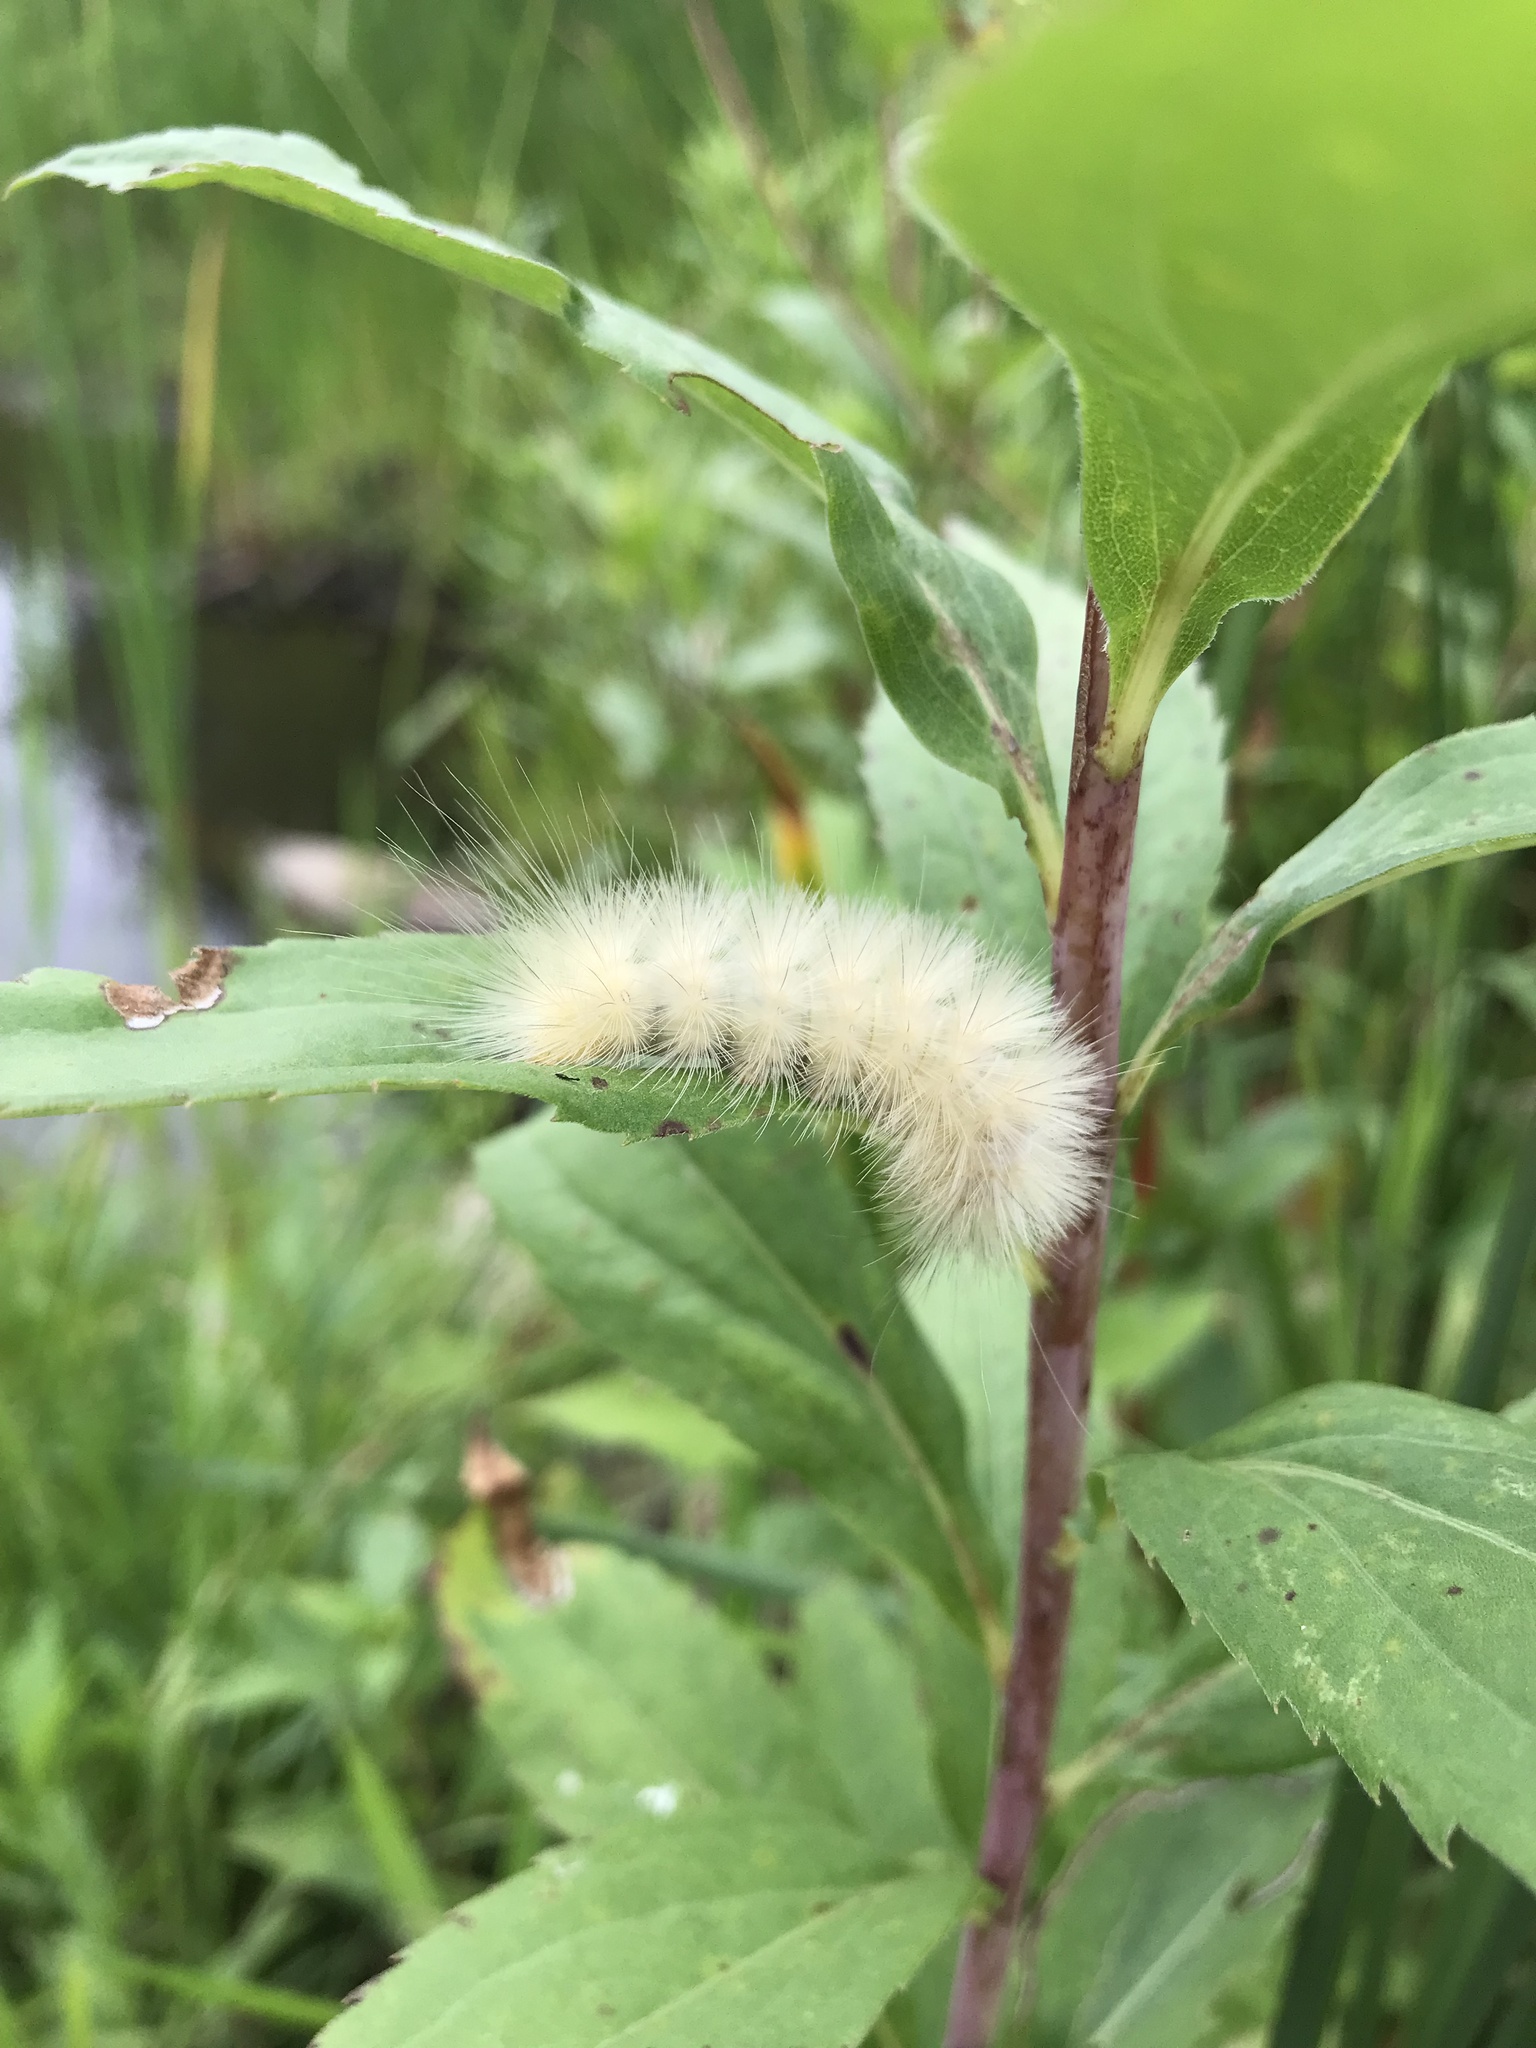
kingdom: Animalia
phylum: Arthropoda
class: Insecta
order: Lepidoptera
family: Erebidae
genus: Spilosoma
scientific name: Spilosoma virginica
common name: Virginia tiger moth
